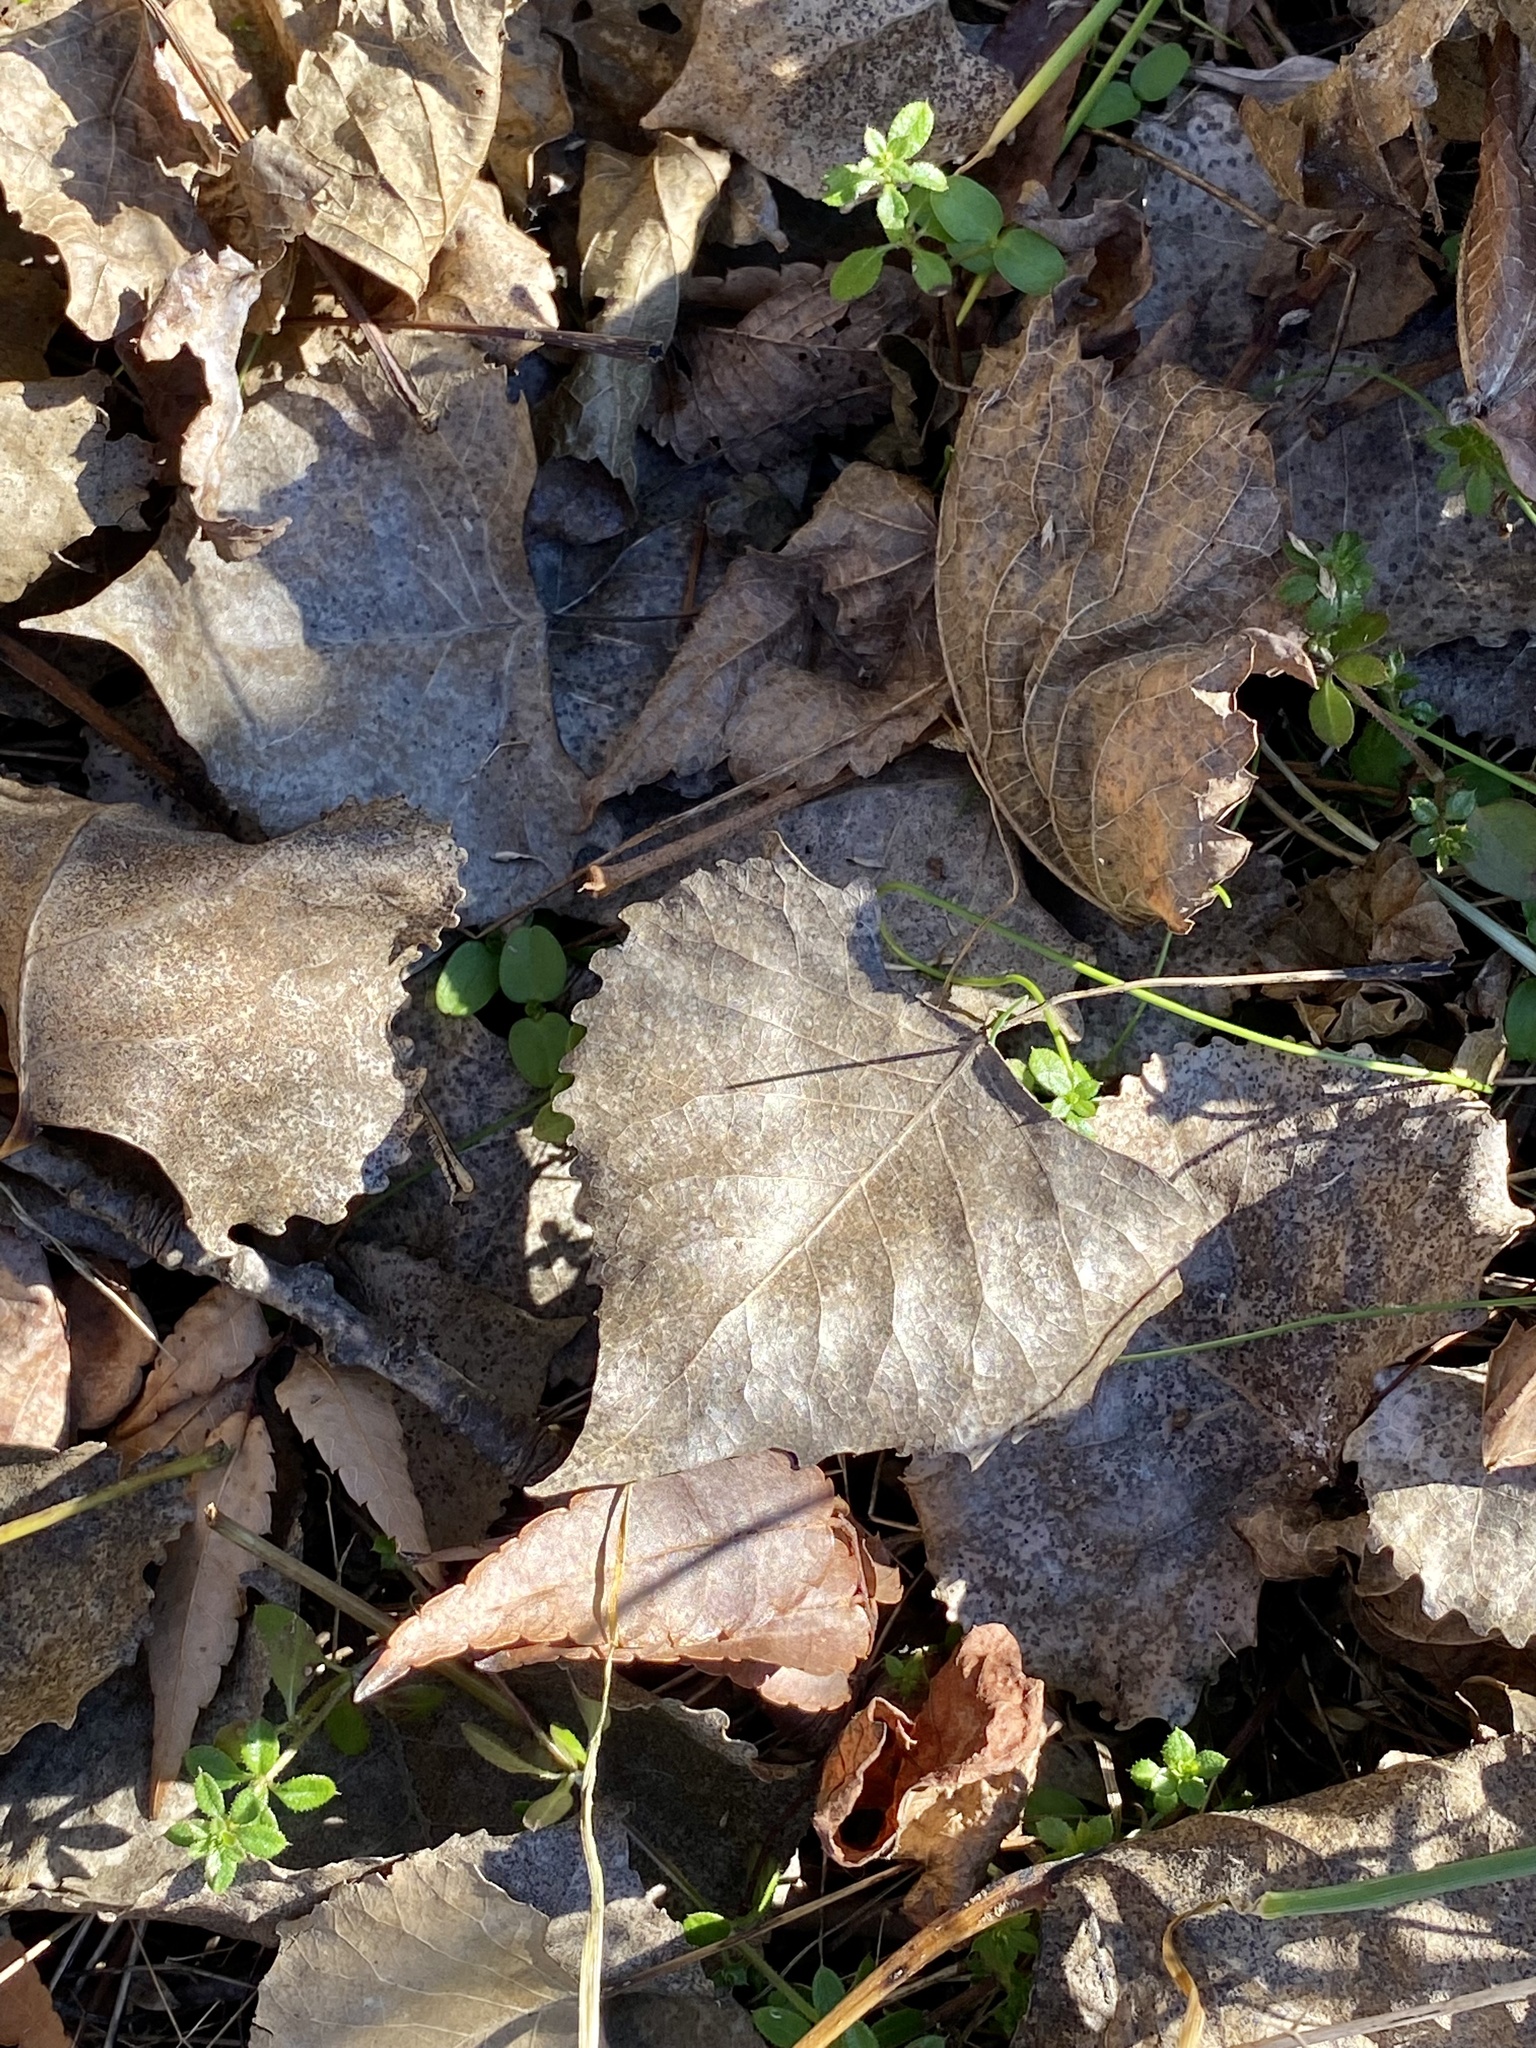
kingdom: Plantae
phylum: Tracheophyta
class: Magnoliopsida
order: Malpighiales
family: Salicaceae
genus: Populus
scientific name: Populus deltoides
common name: Eastern cottonwood
